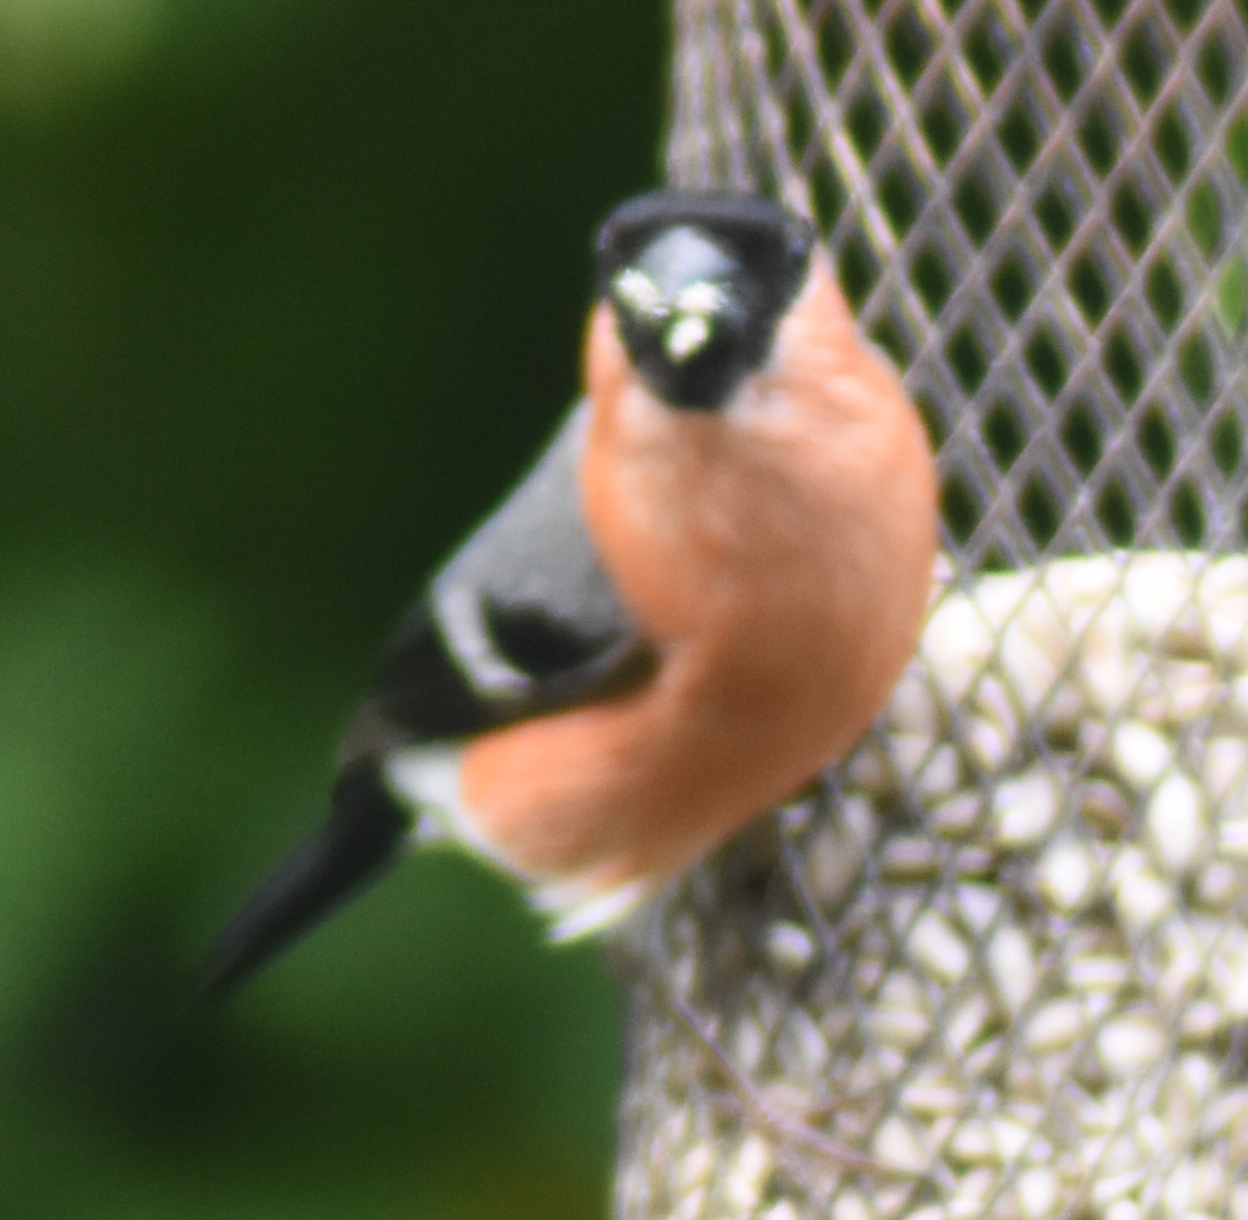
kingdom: Animalia
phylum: Chordata
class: Aves
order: Passeriformes
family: Fringillidae
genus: Pyrrhula
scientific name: Pyrrhula pyrrhula
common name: Eurasian bullfinch
